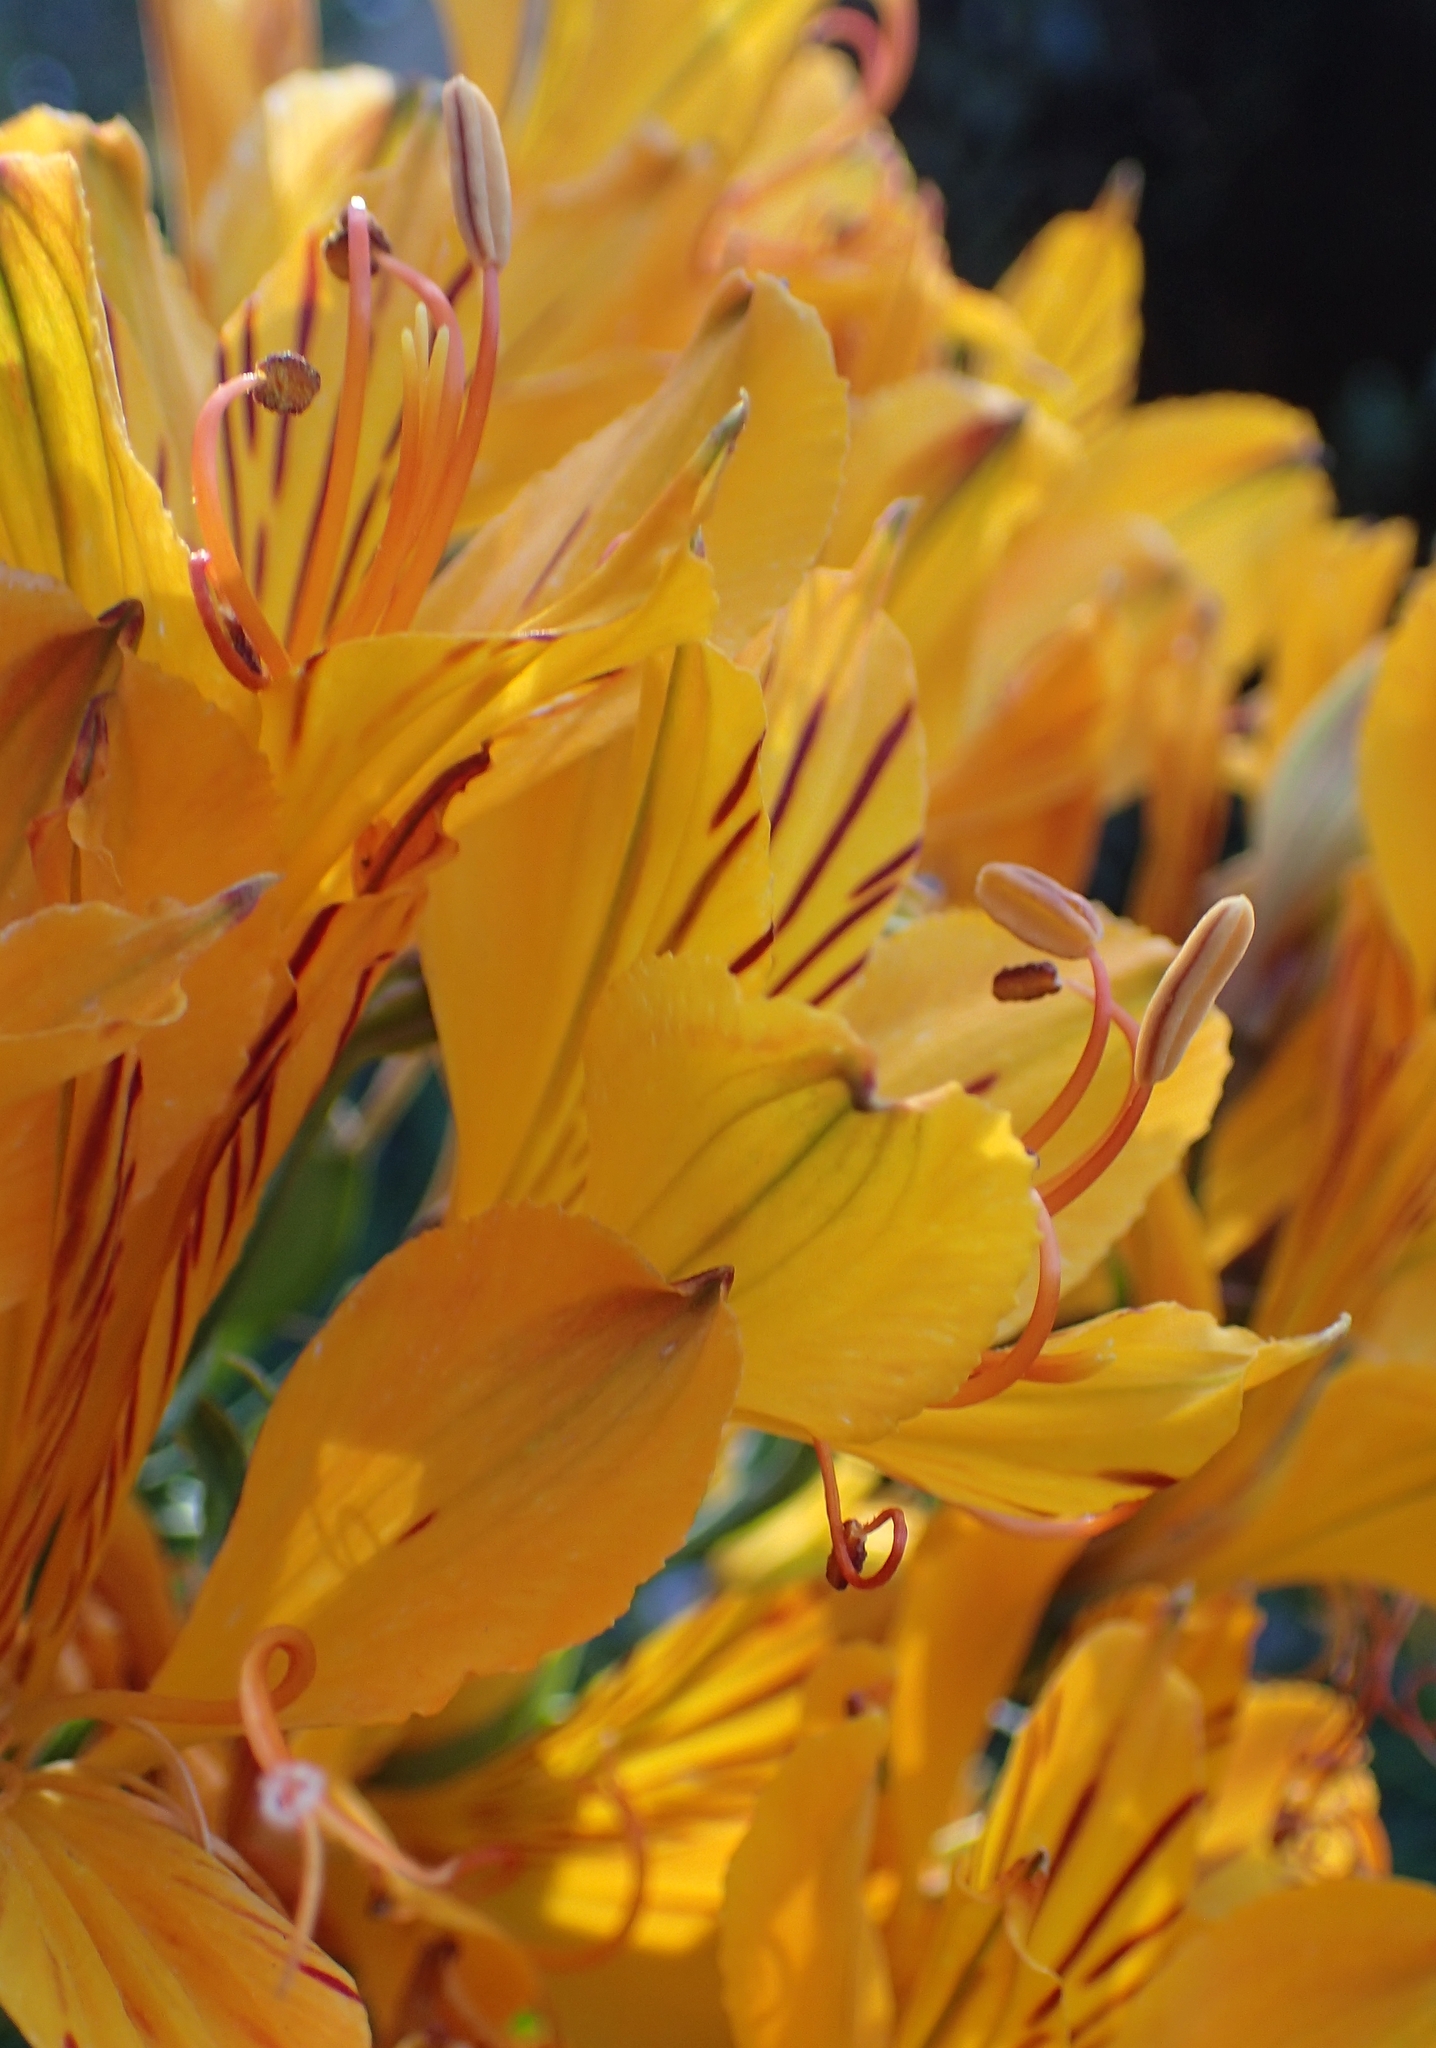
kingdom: Plantae
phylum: Tracheophyta
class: Liliopsida
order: Liliales
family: Alstroemeriaceae
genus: Alstroemeria
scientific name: Alstroemeria aurea
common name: Peruvian lily
